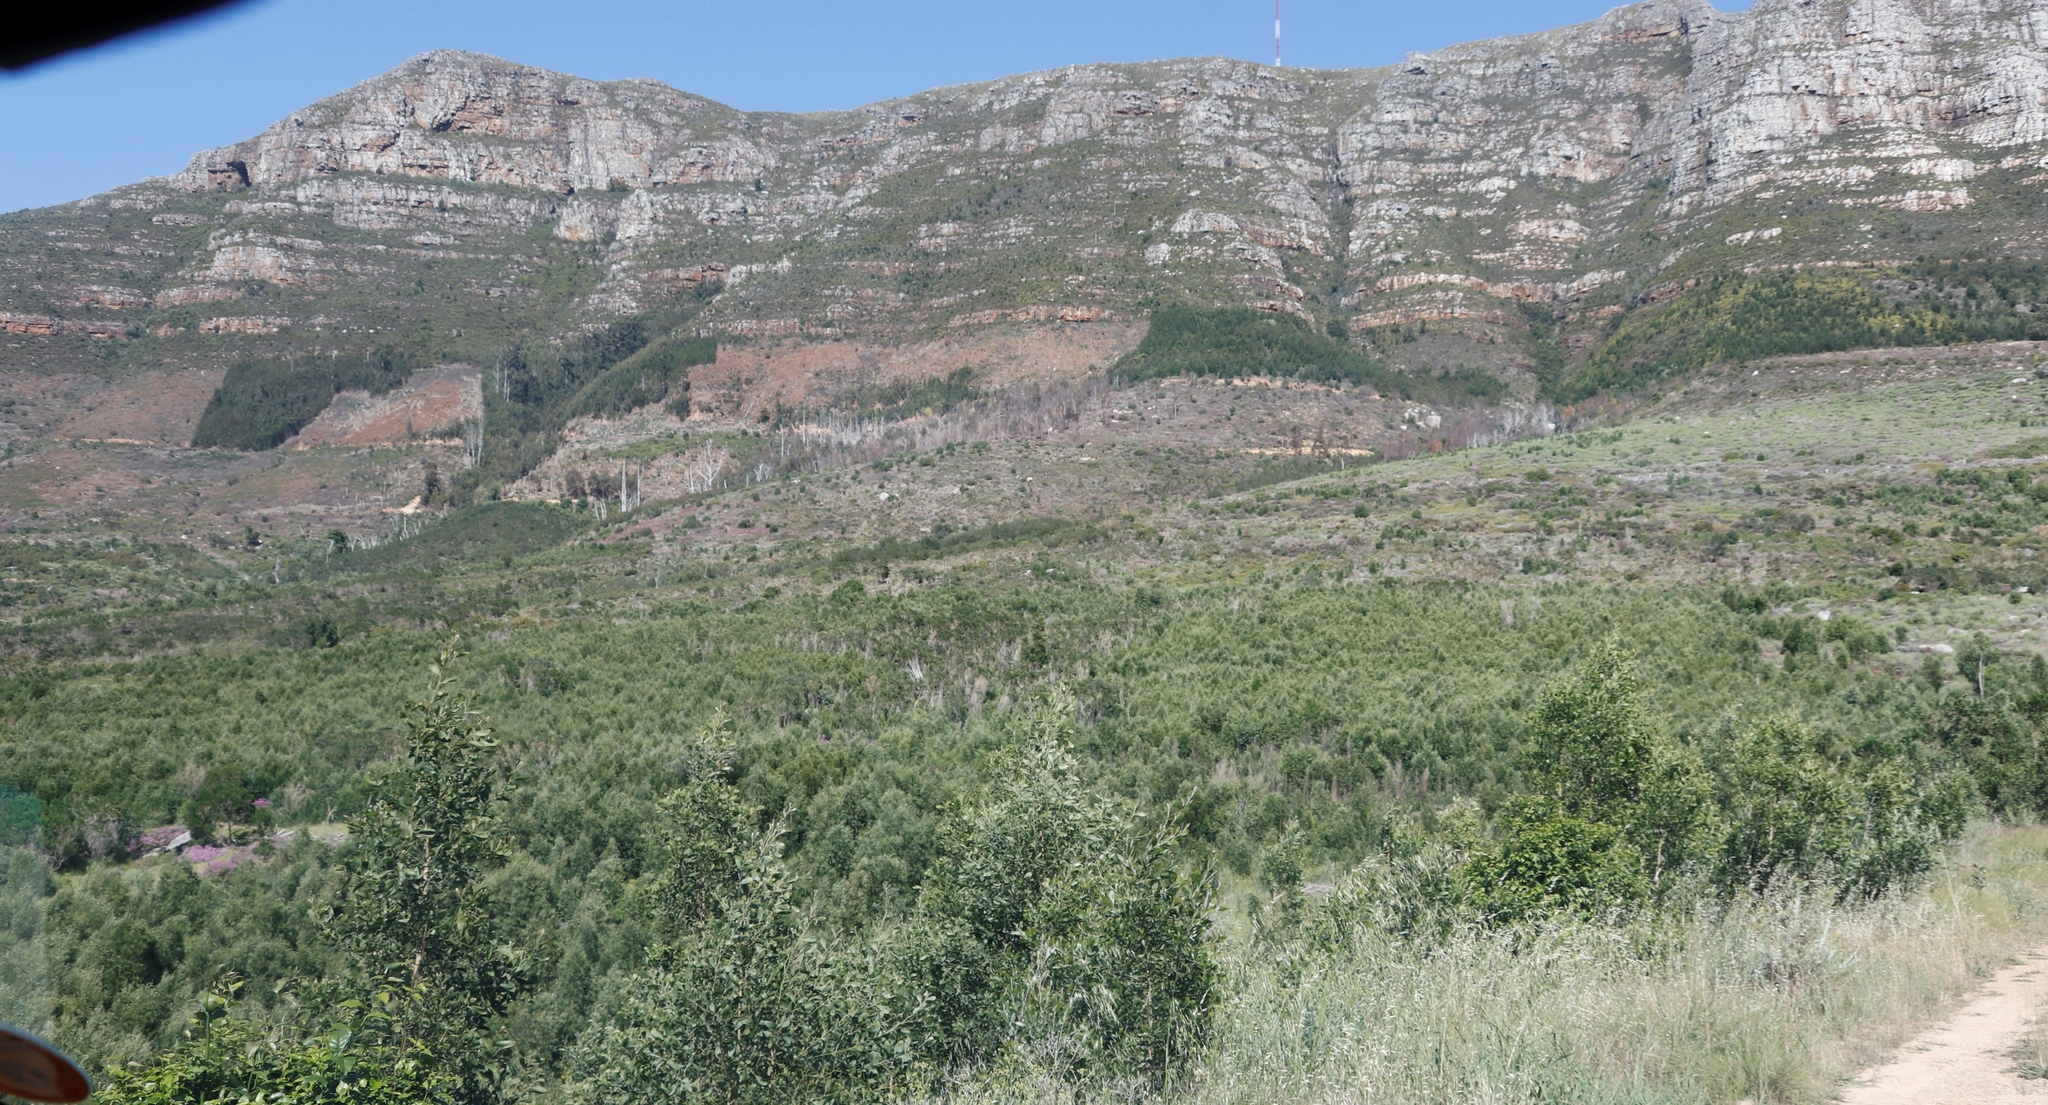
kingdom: Plantae
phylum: Tracheophyta
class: Magnoliopsida
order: Fabales
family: Fabaceae
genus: Acacia
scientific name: Acacia melanoxylon
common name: Blackwood
